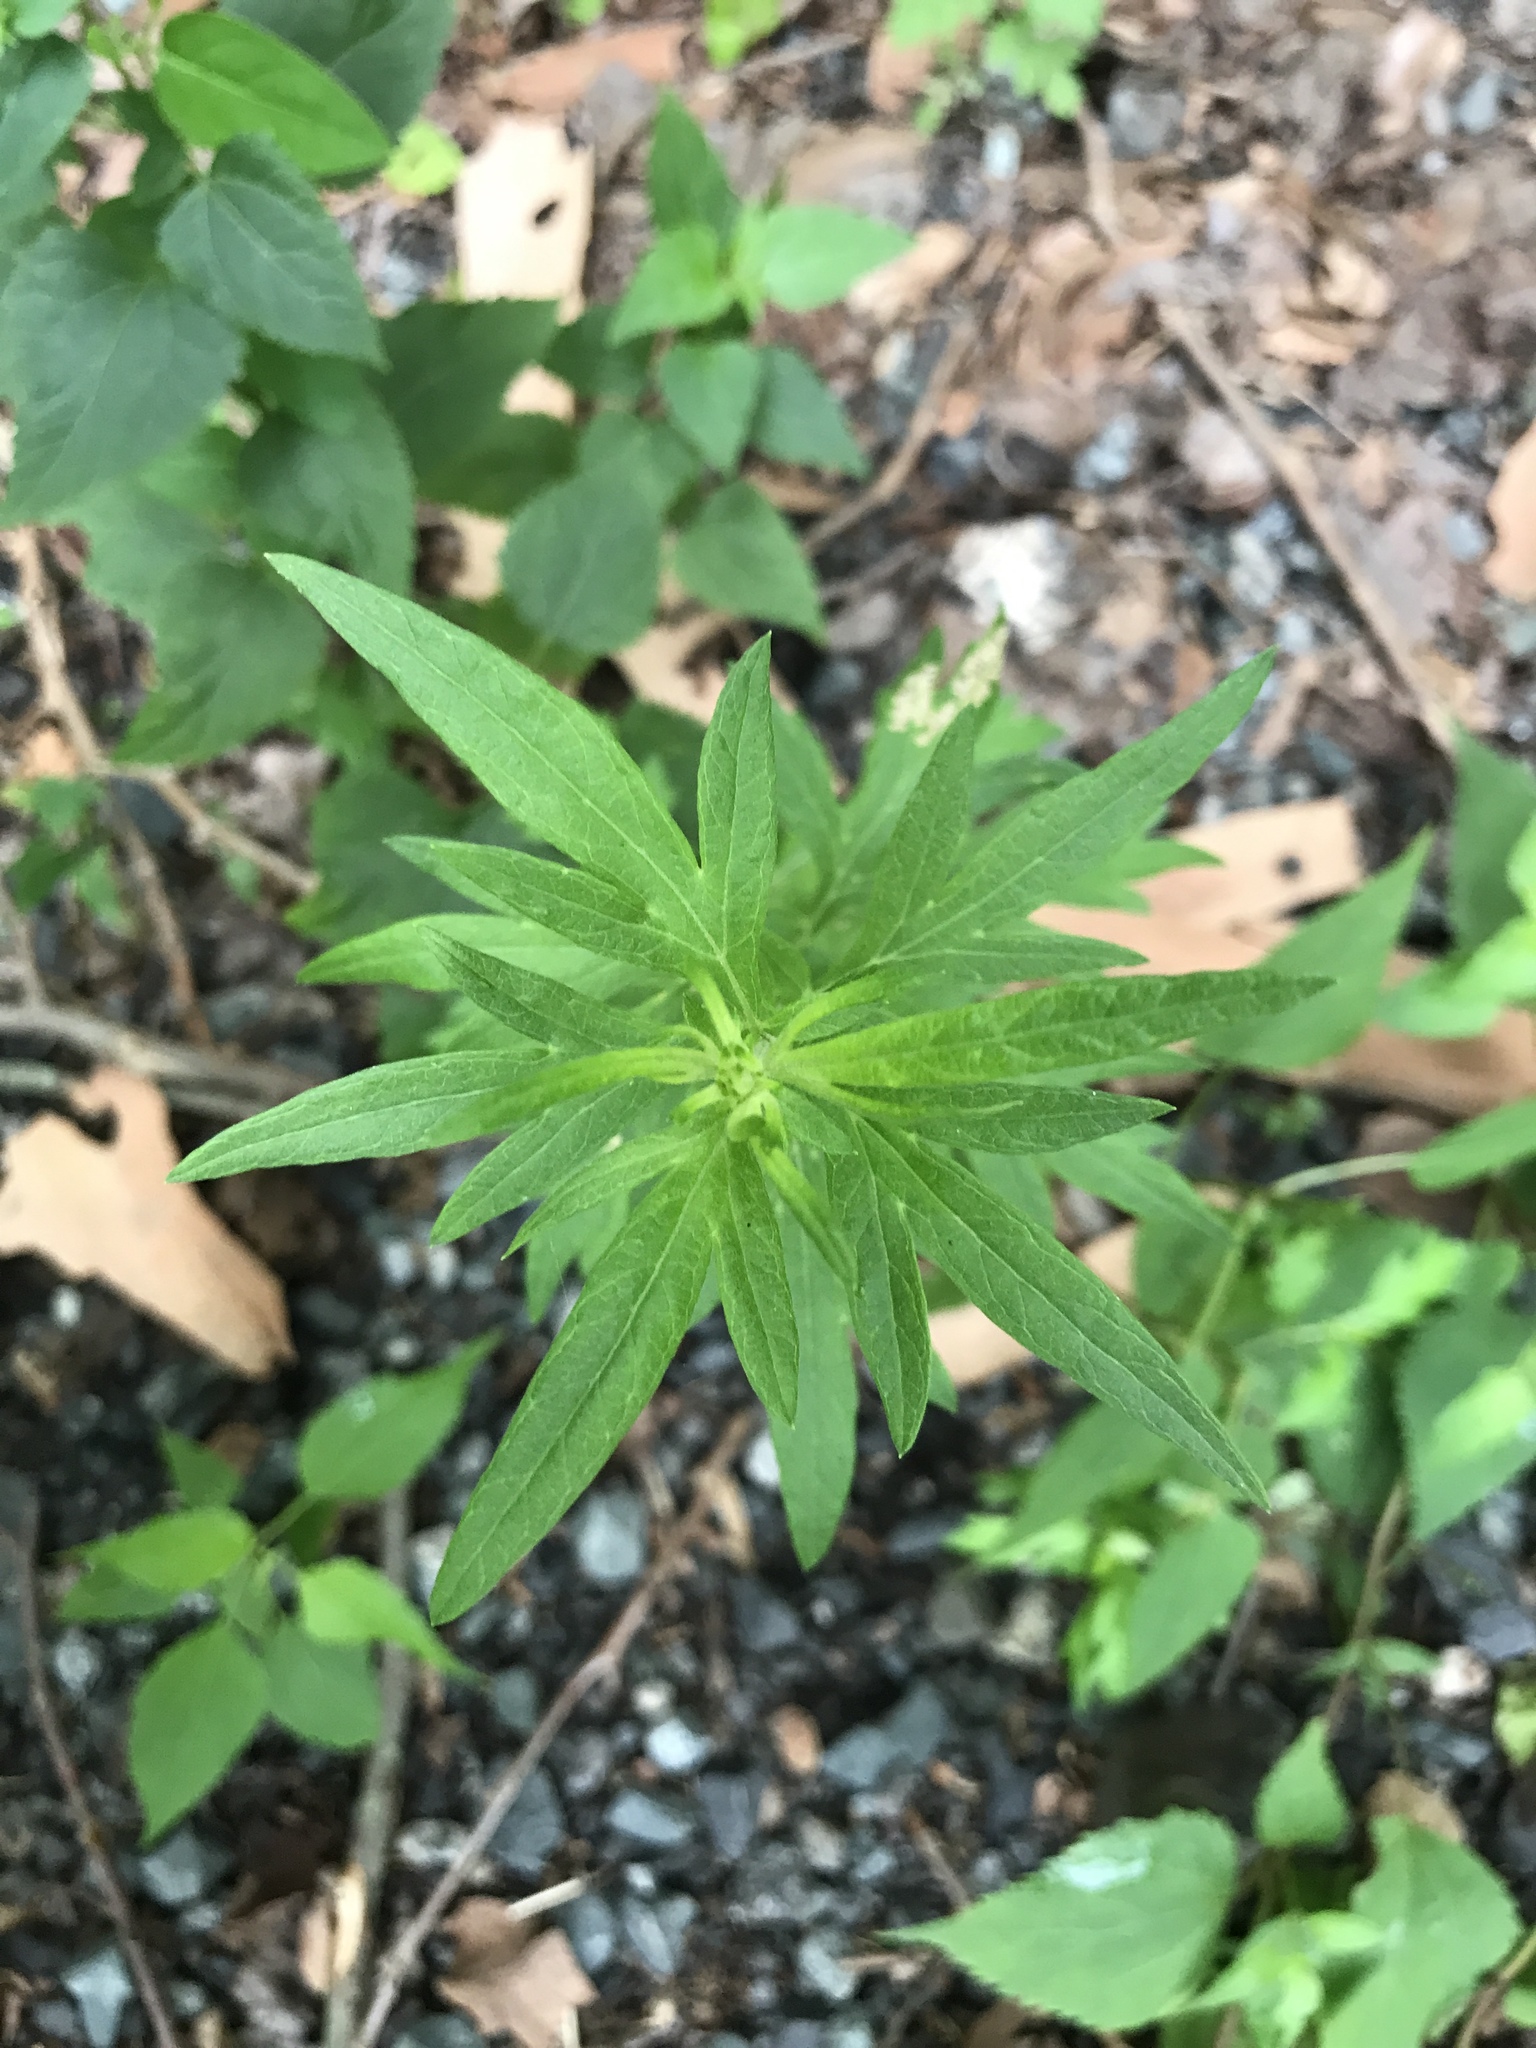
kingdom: Plantae
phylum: Tracheophyta
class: Magnoliopsida
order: Asterales
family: Asteraceae
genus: Artemisia
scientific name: Artemisia vulgaris
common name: Mugwort
